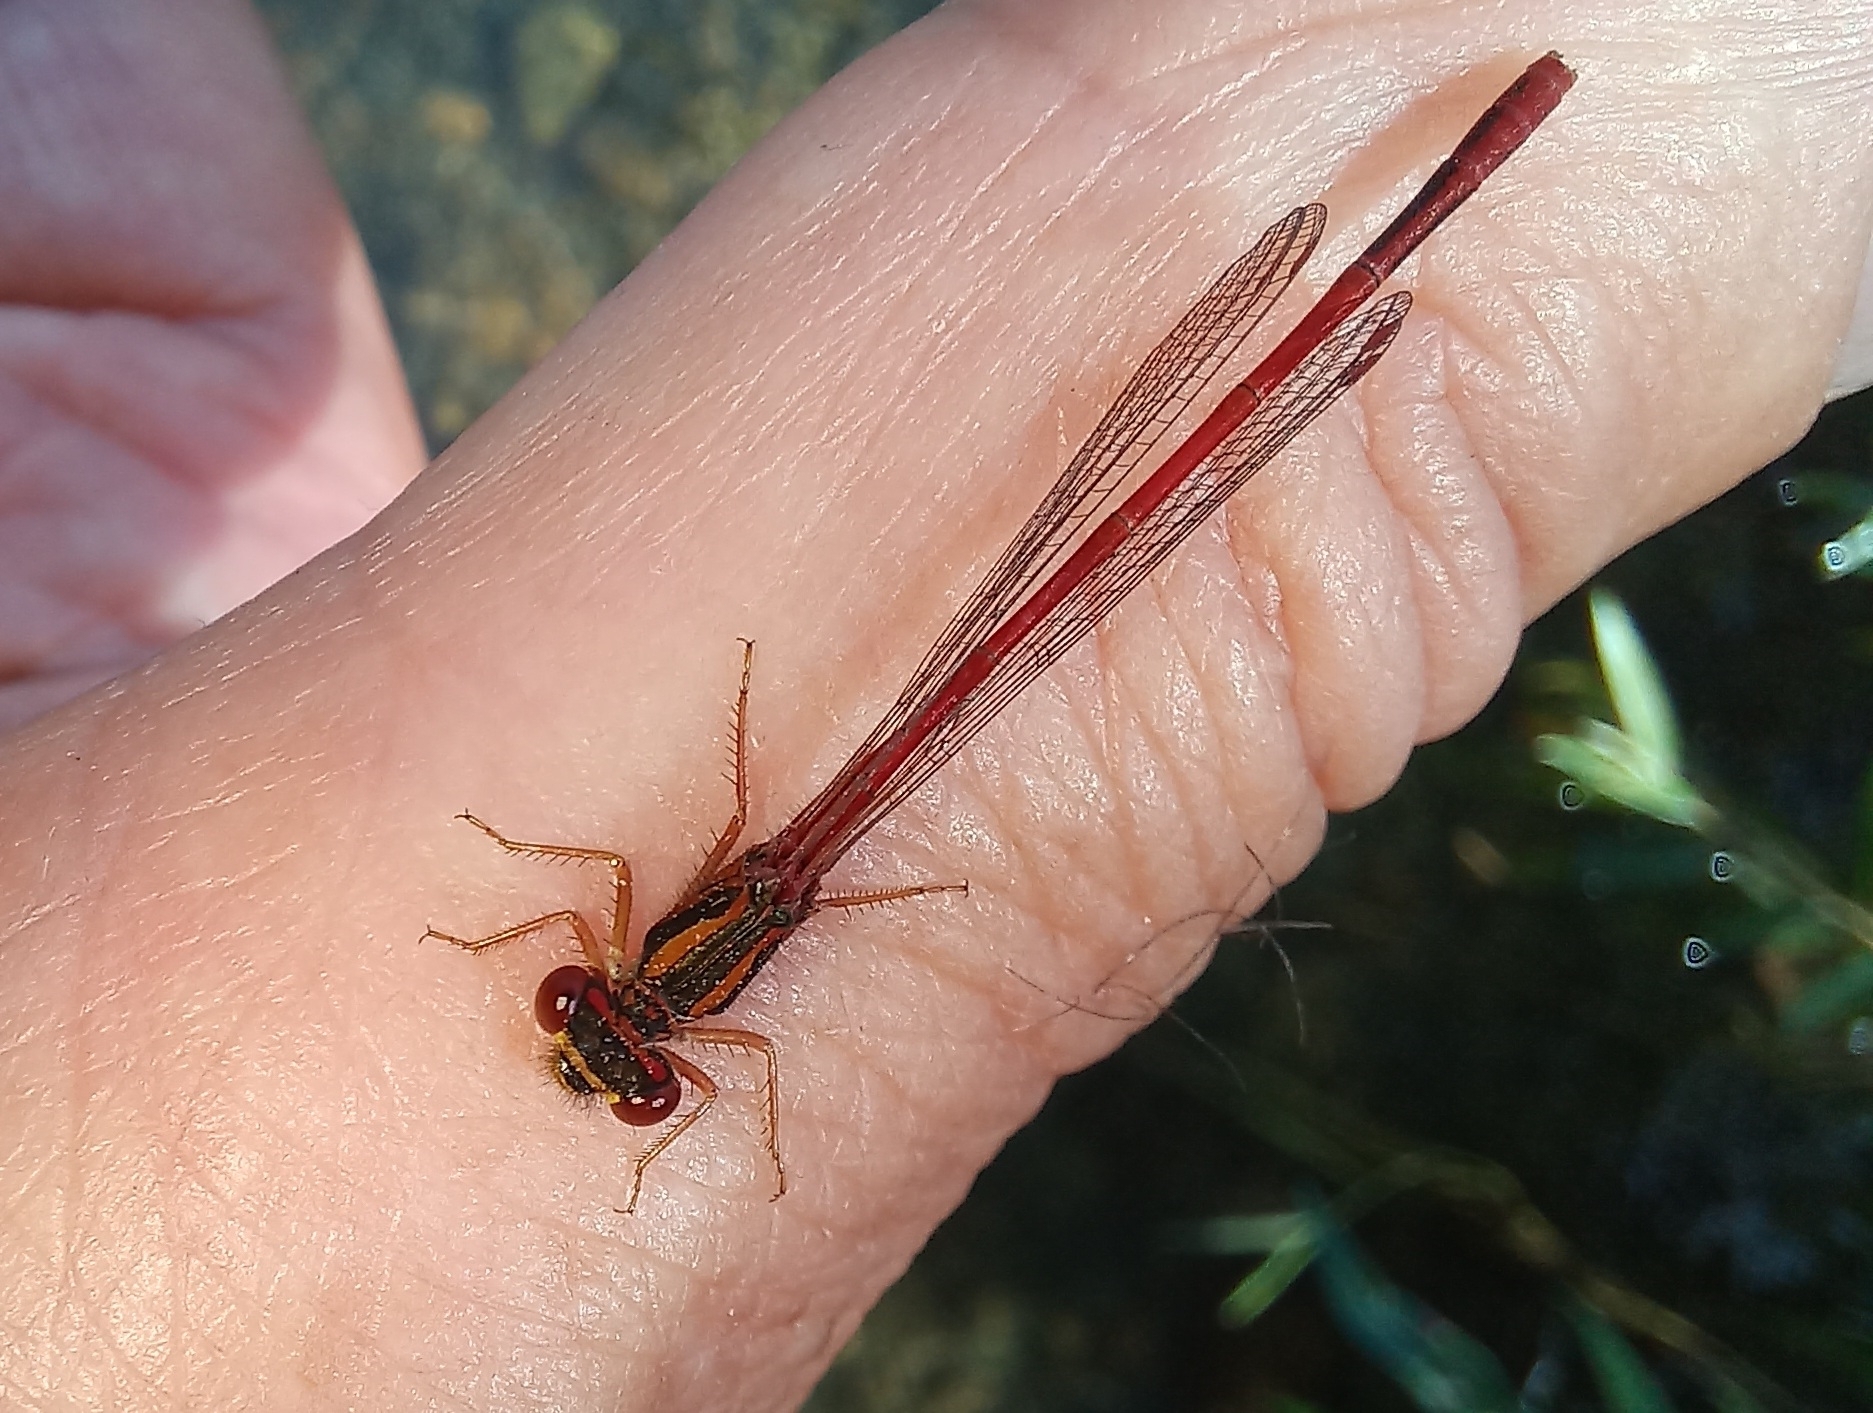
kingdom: Animalia
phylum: Arthropoda
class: Insecta
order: Odonata
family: Coenagrionidae
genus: Xanthocnemis
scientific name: Xanthocnemis zealandica
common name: Common redcoat damselfly
